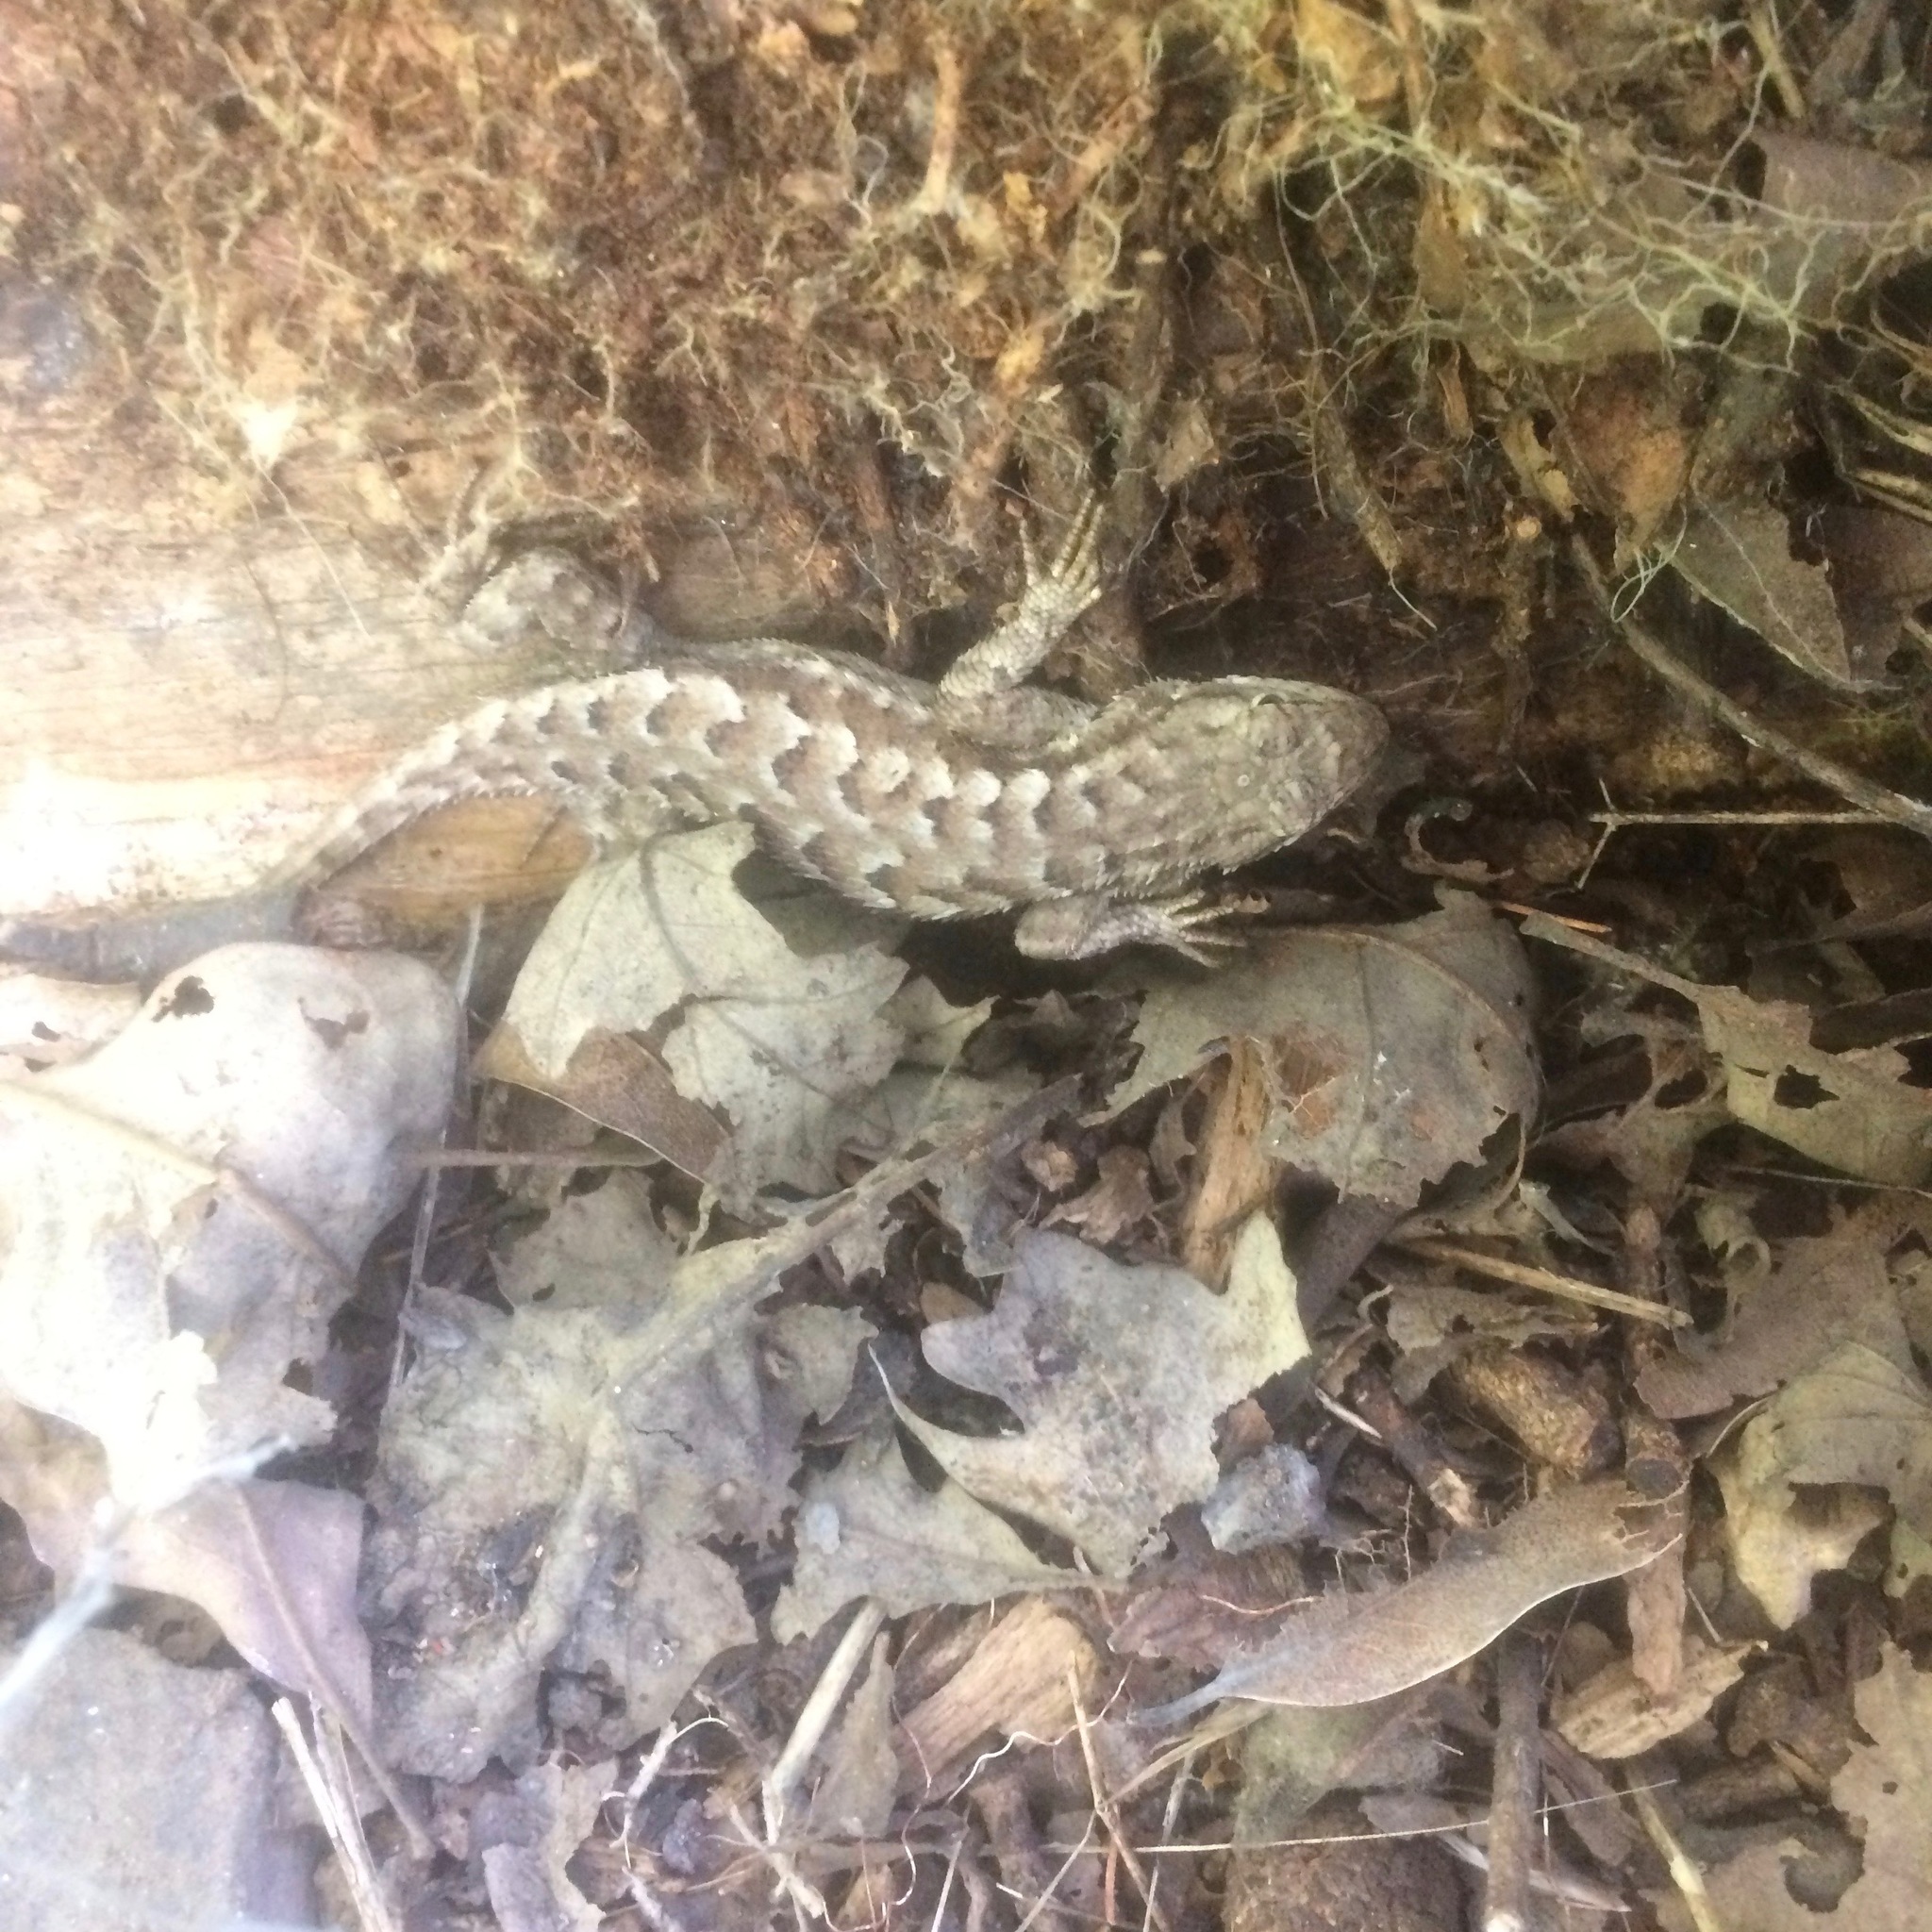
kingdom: Animalia
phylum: Chordata
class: Squamata
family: Phrynosomatidae
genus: Sceloporus
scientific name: Sceloporus occidentalis
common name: Western fence lizard
